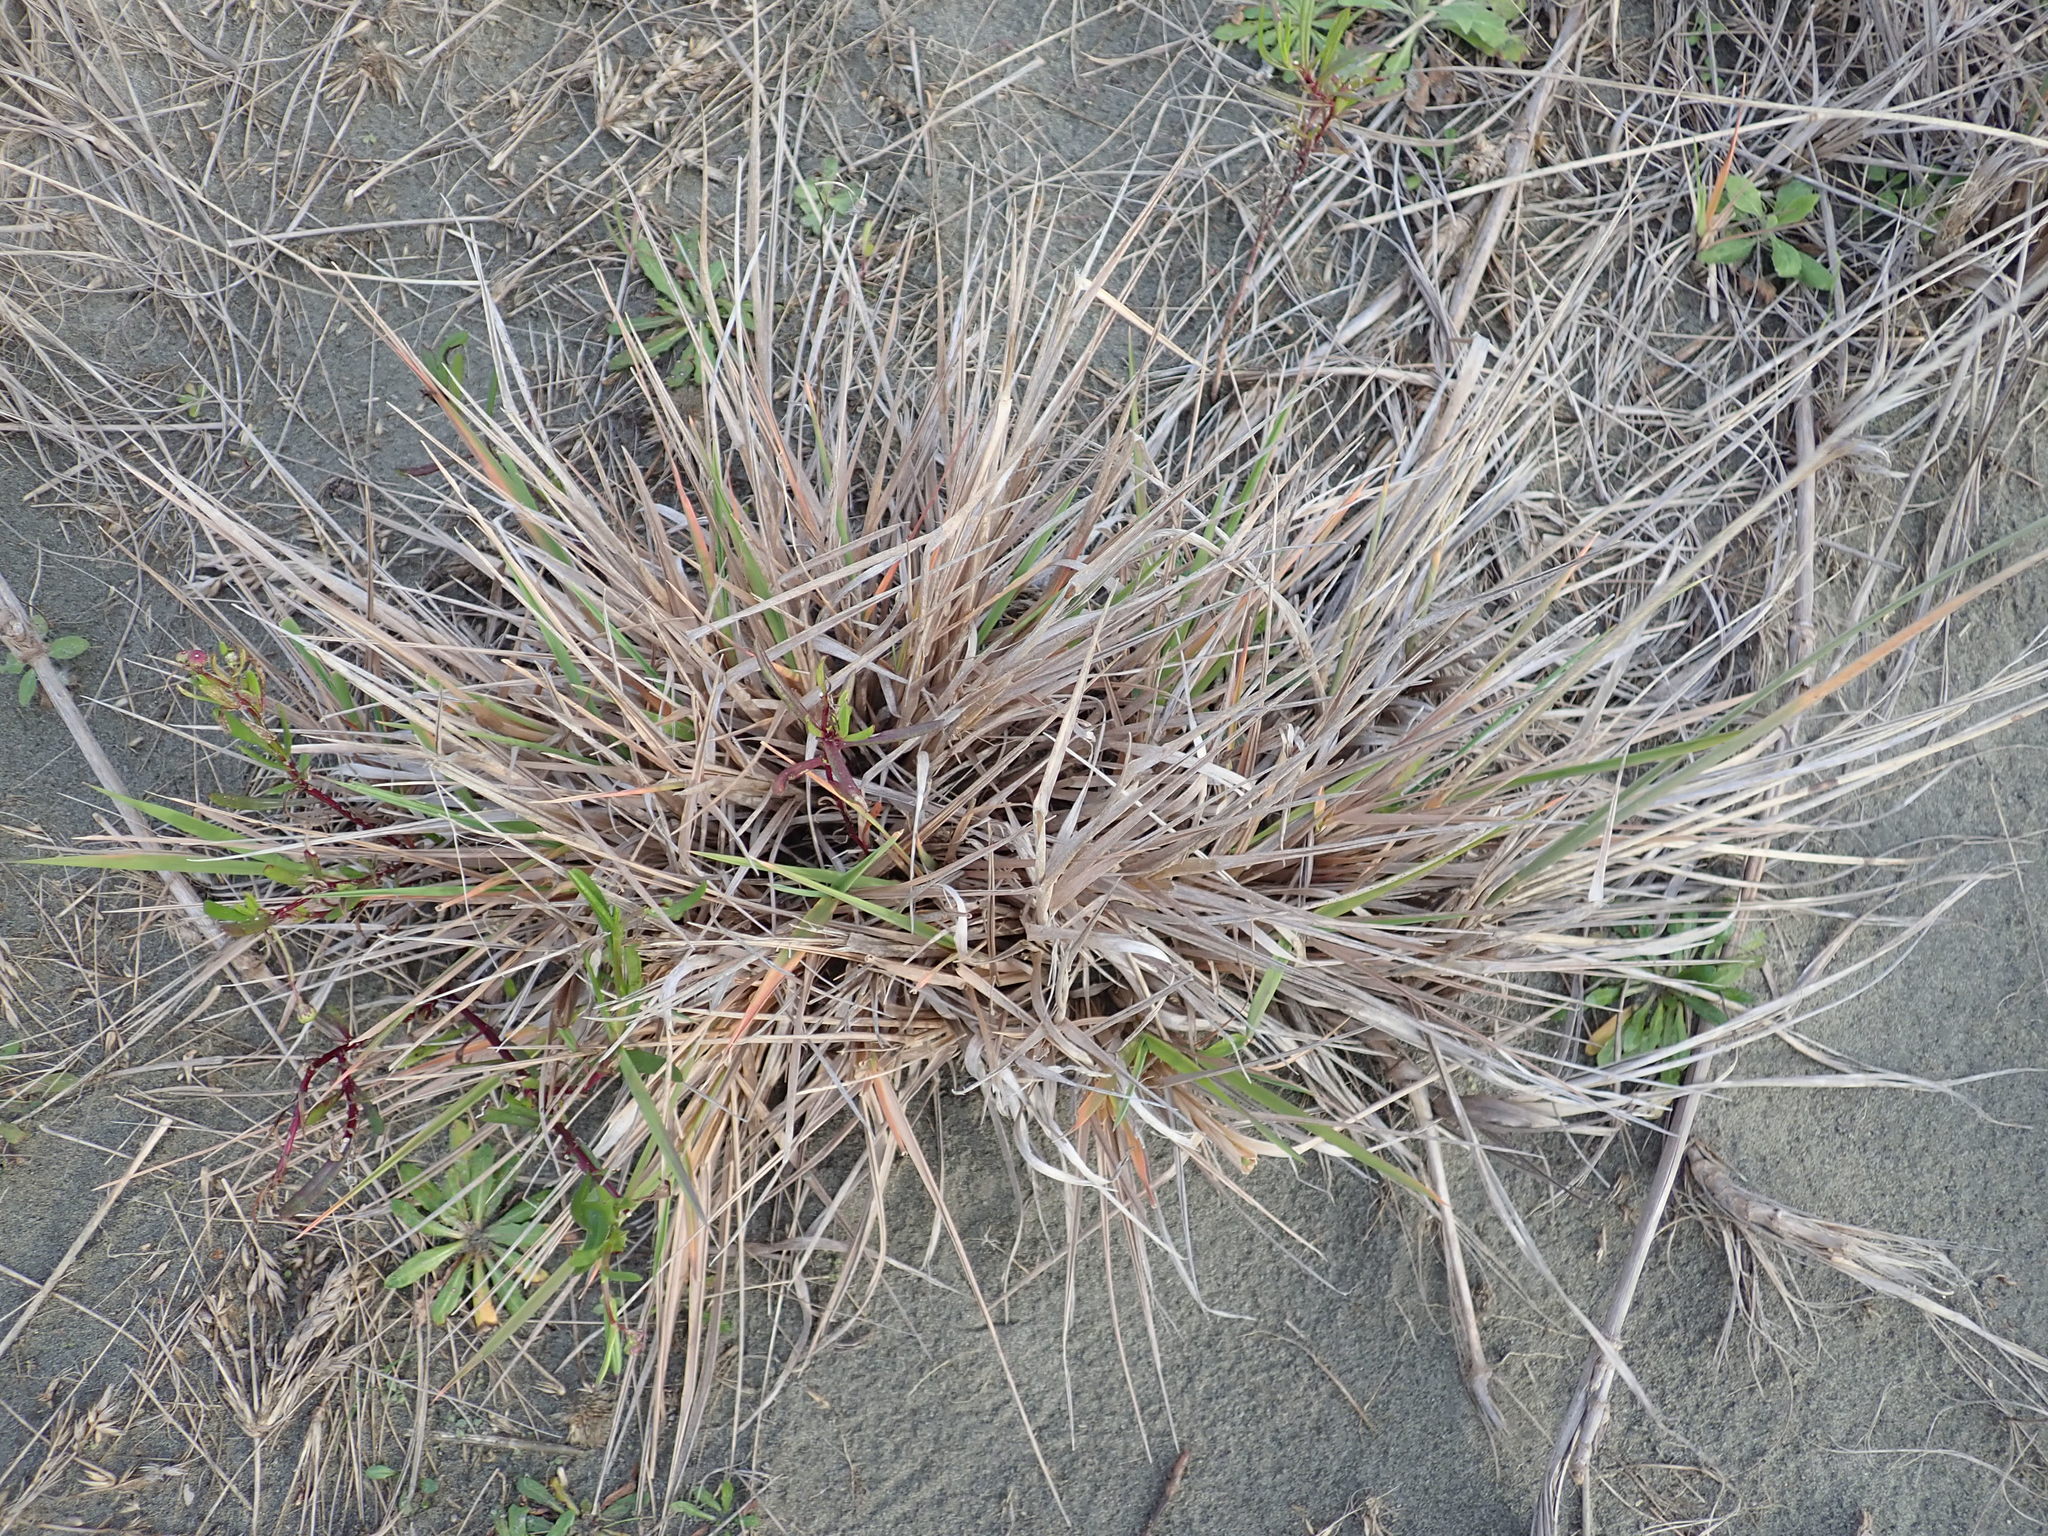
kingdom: Plantae
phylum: Tracheophyta
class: Liliopsida
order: Poales
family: Poaceae
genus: Lachnagrostis
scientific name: Lachnagrostis billardierei
